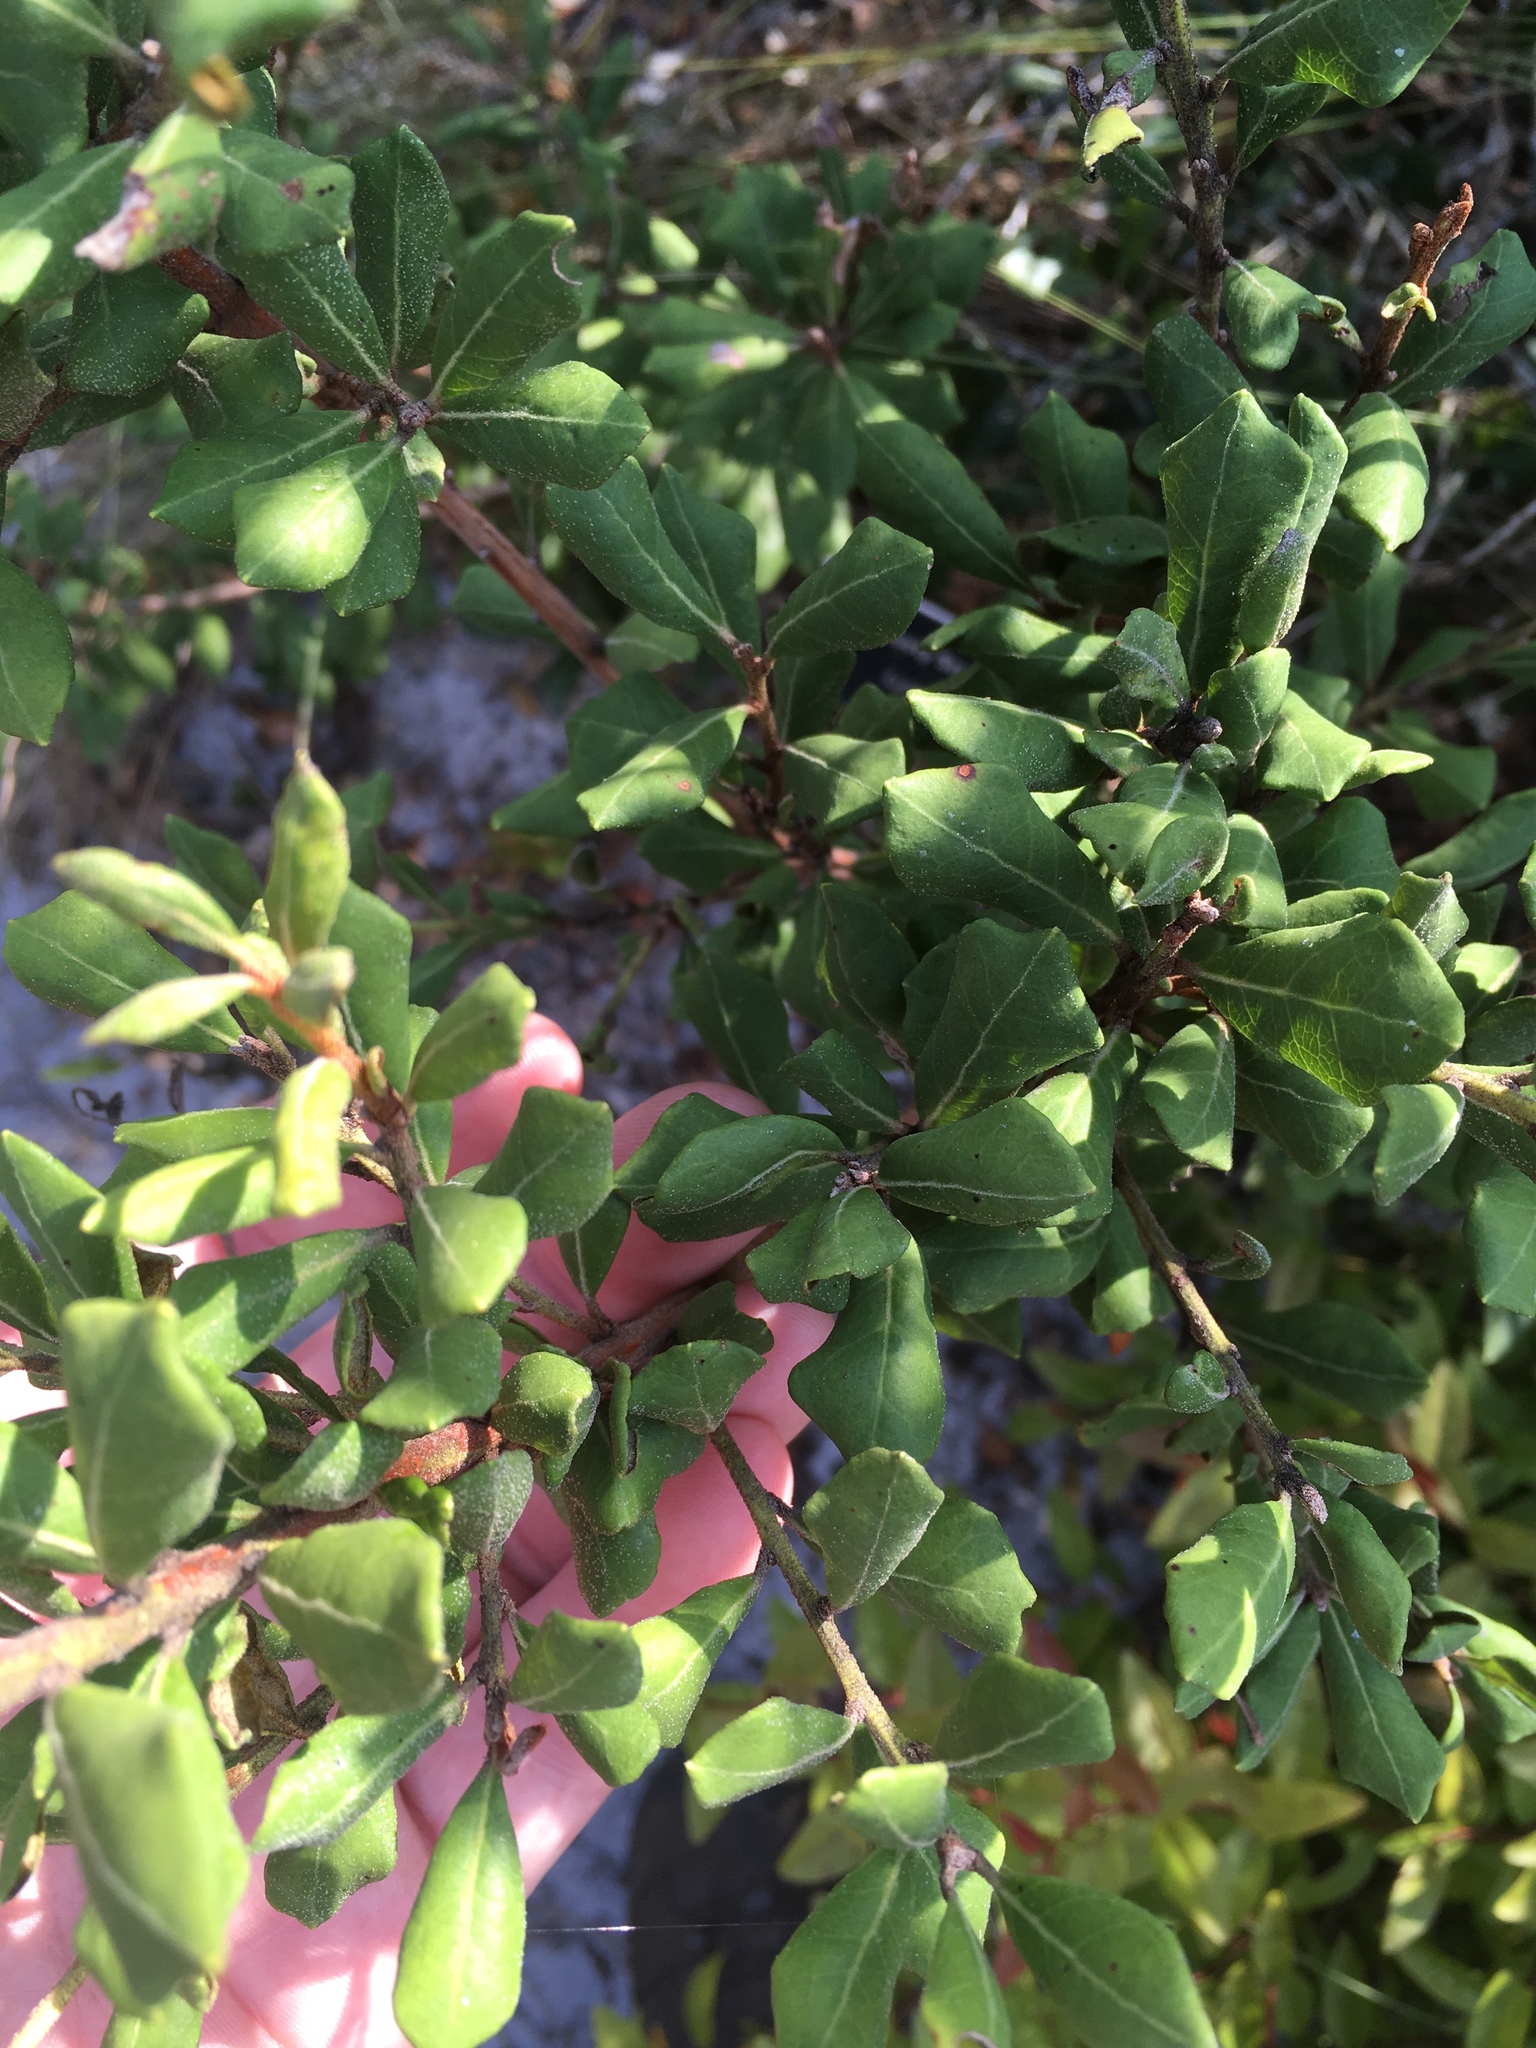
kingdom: Plantae
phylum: Tracheophyta
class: Magnoliopsida
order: Ericales
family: Ericaceae
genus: Lyonia
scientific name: Lyonia ferruginea
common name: Rusty lyonia
